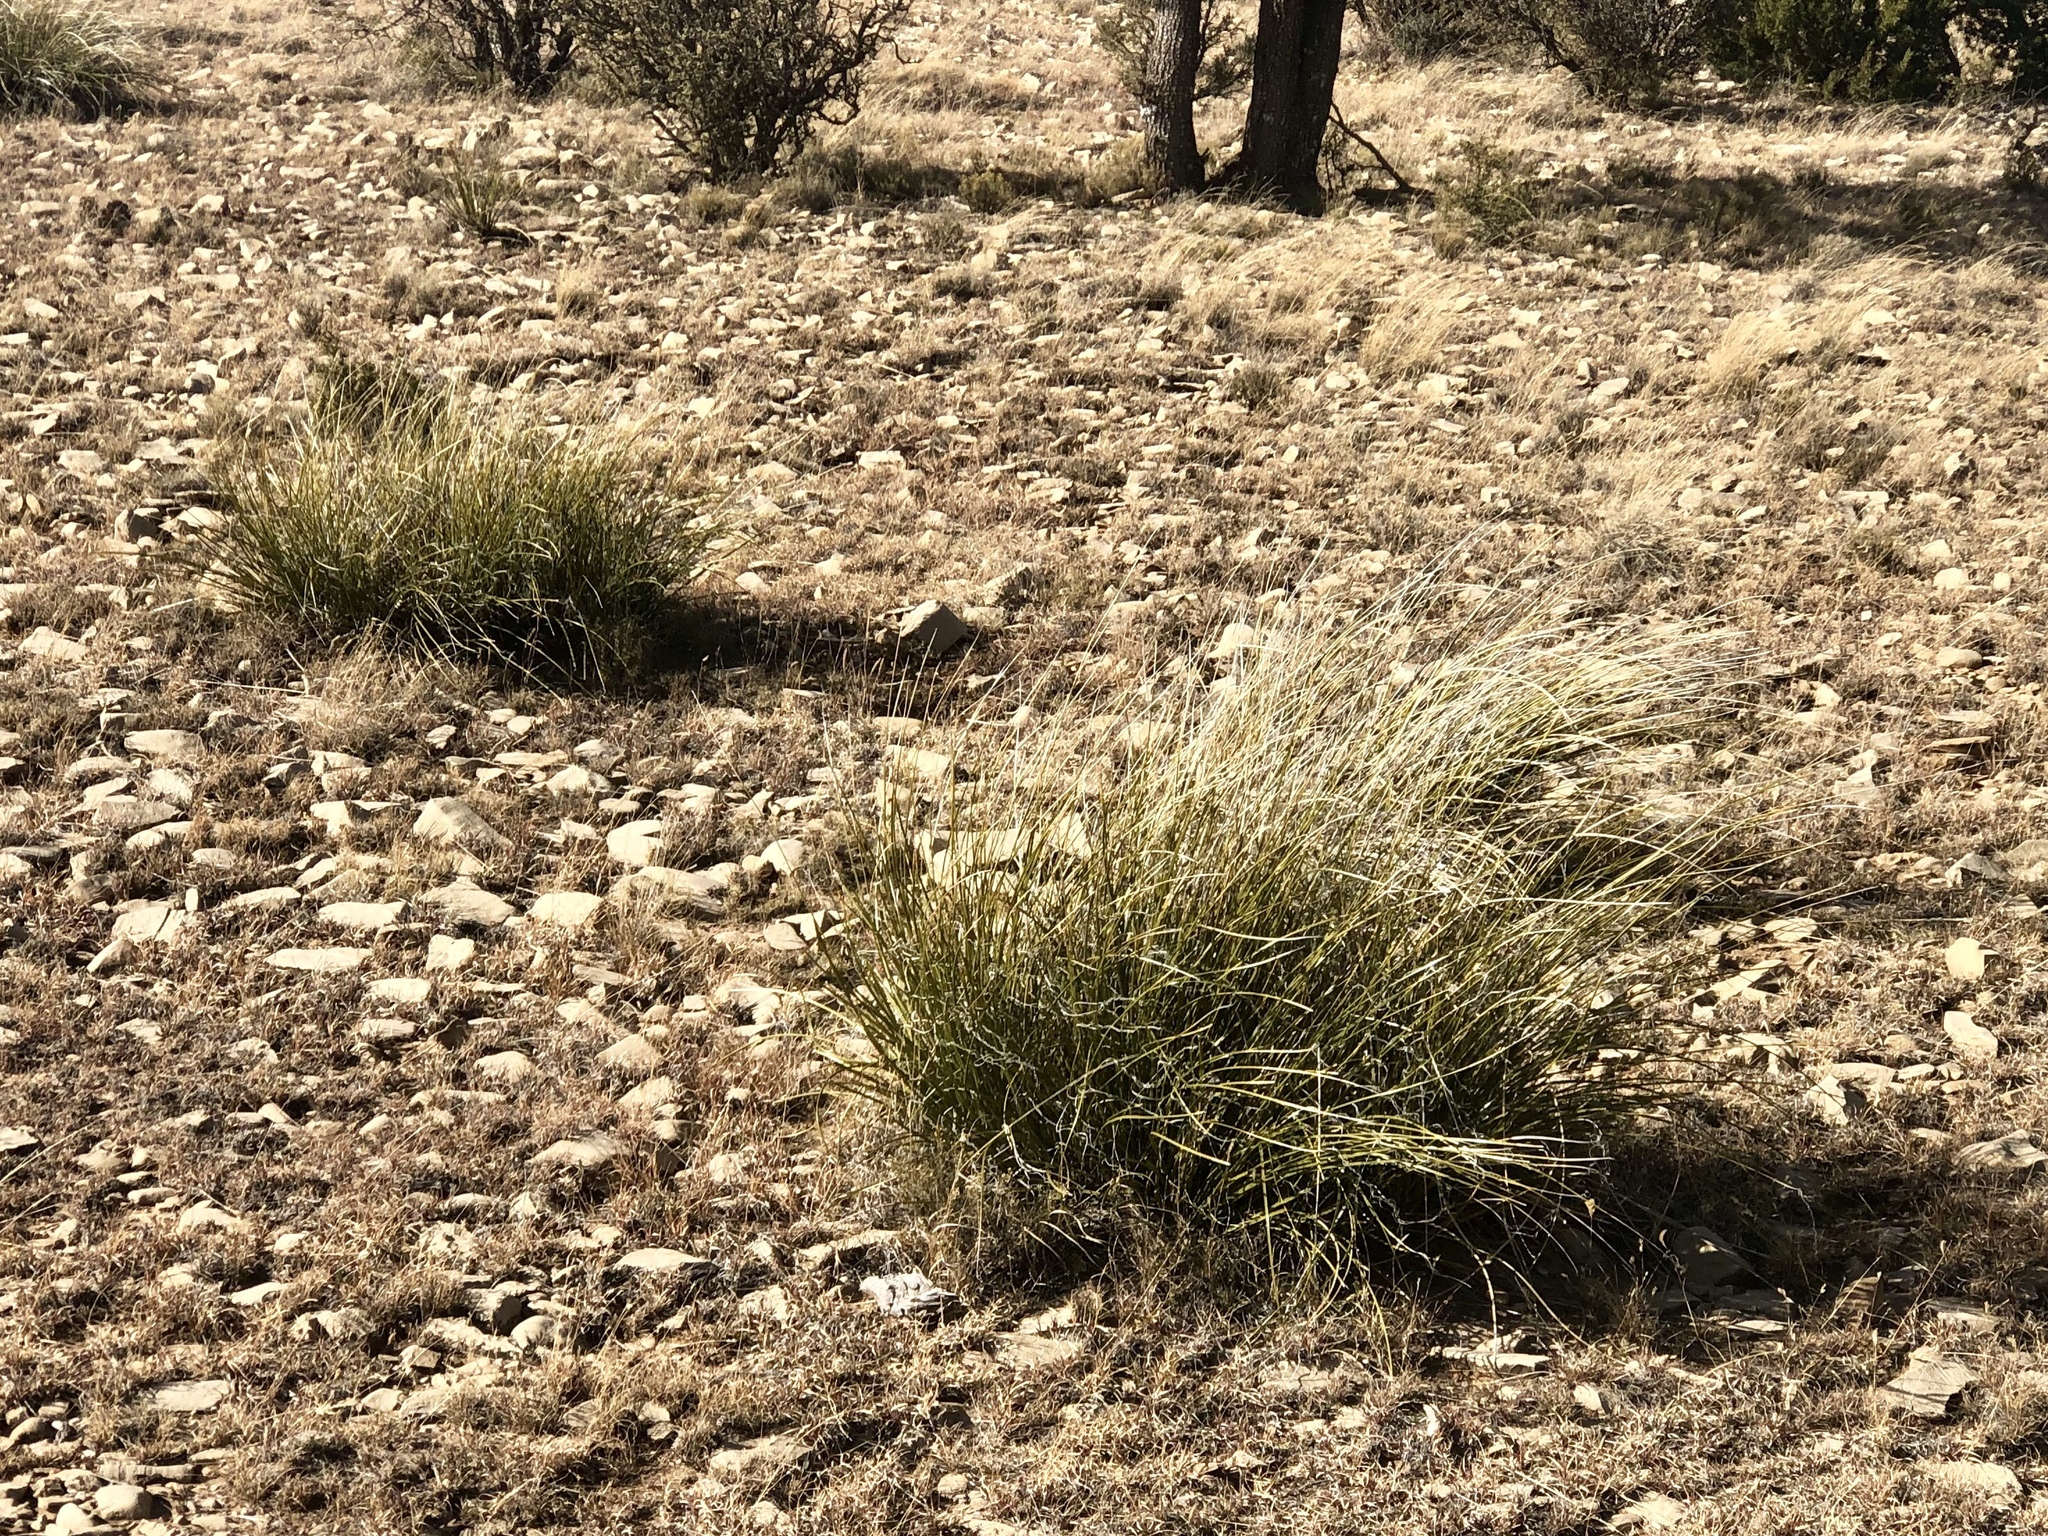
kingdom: Plantae
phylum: Tracheophyta
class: Liliopsida
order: Asparagales
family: Asparagaceae
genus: Nolina
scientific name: Nolina texana
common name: Texas sacahuiste
